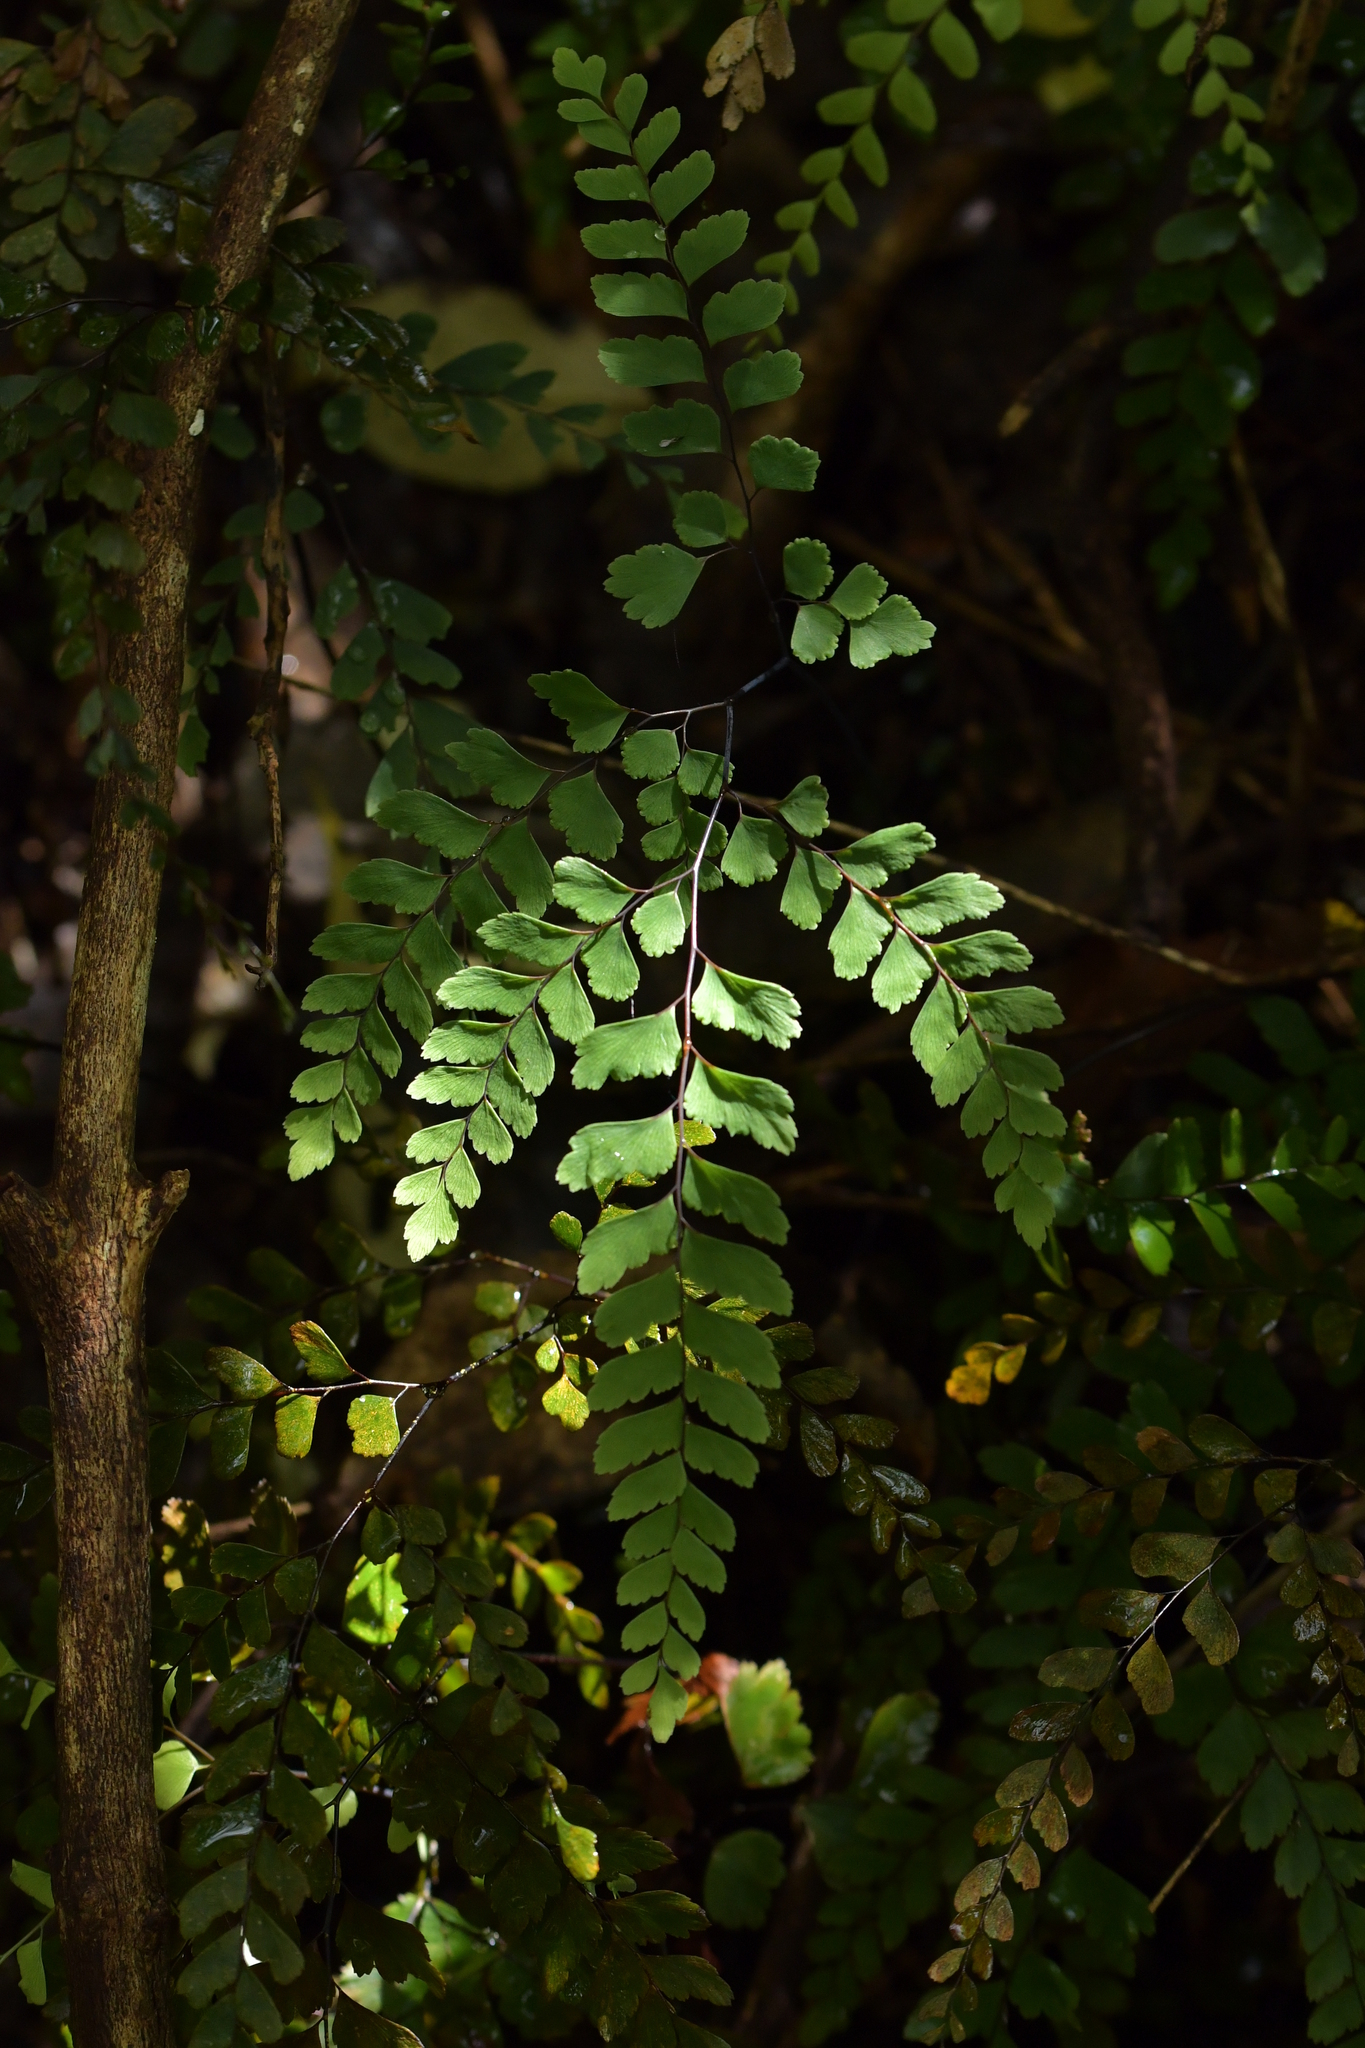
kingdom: Plantae
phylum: Tracheophyta
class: Polypodiopsida
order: Polypodiales
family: Pteridaceae
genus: Adiantum
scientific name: Adiantum cunninghamii
